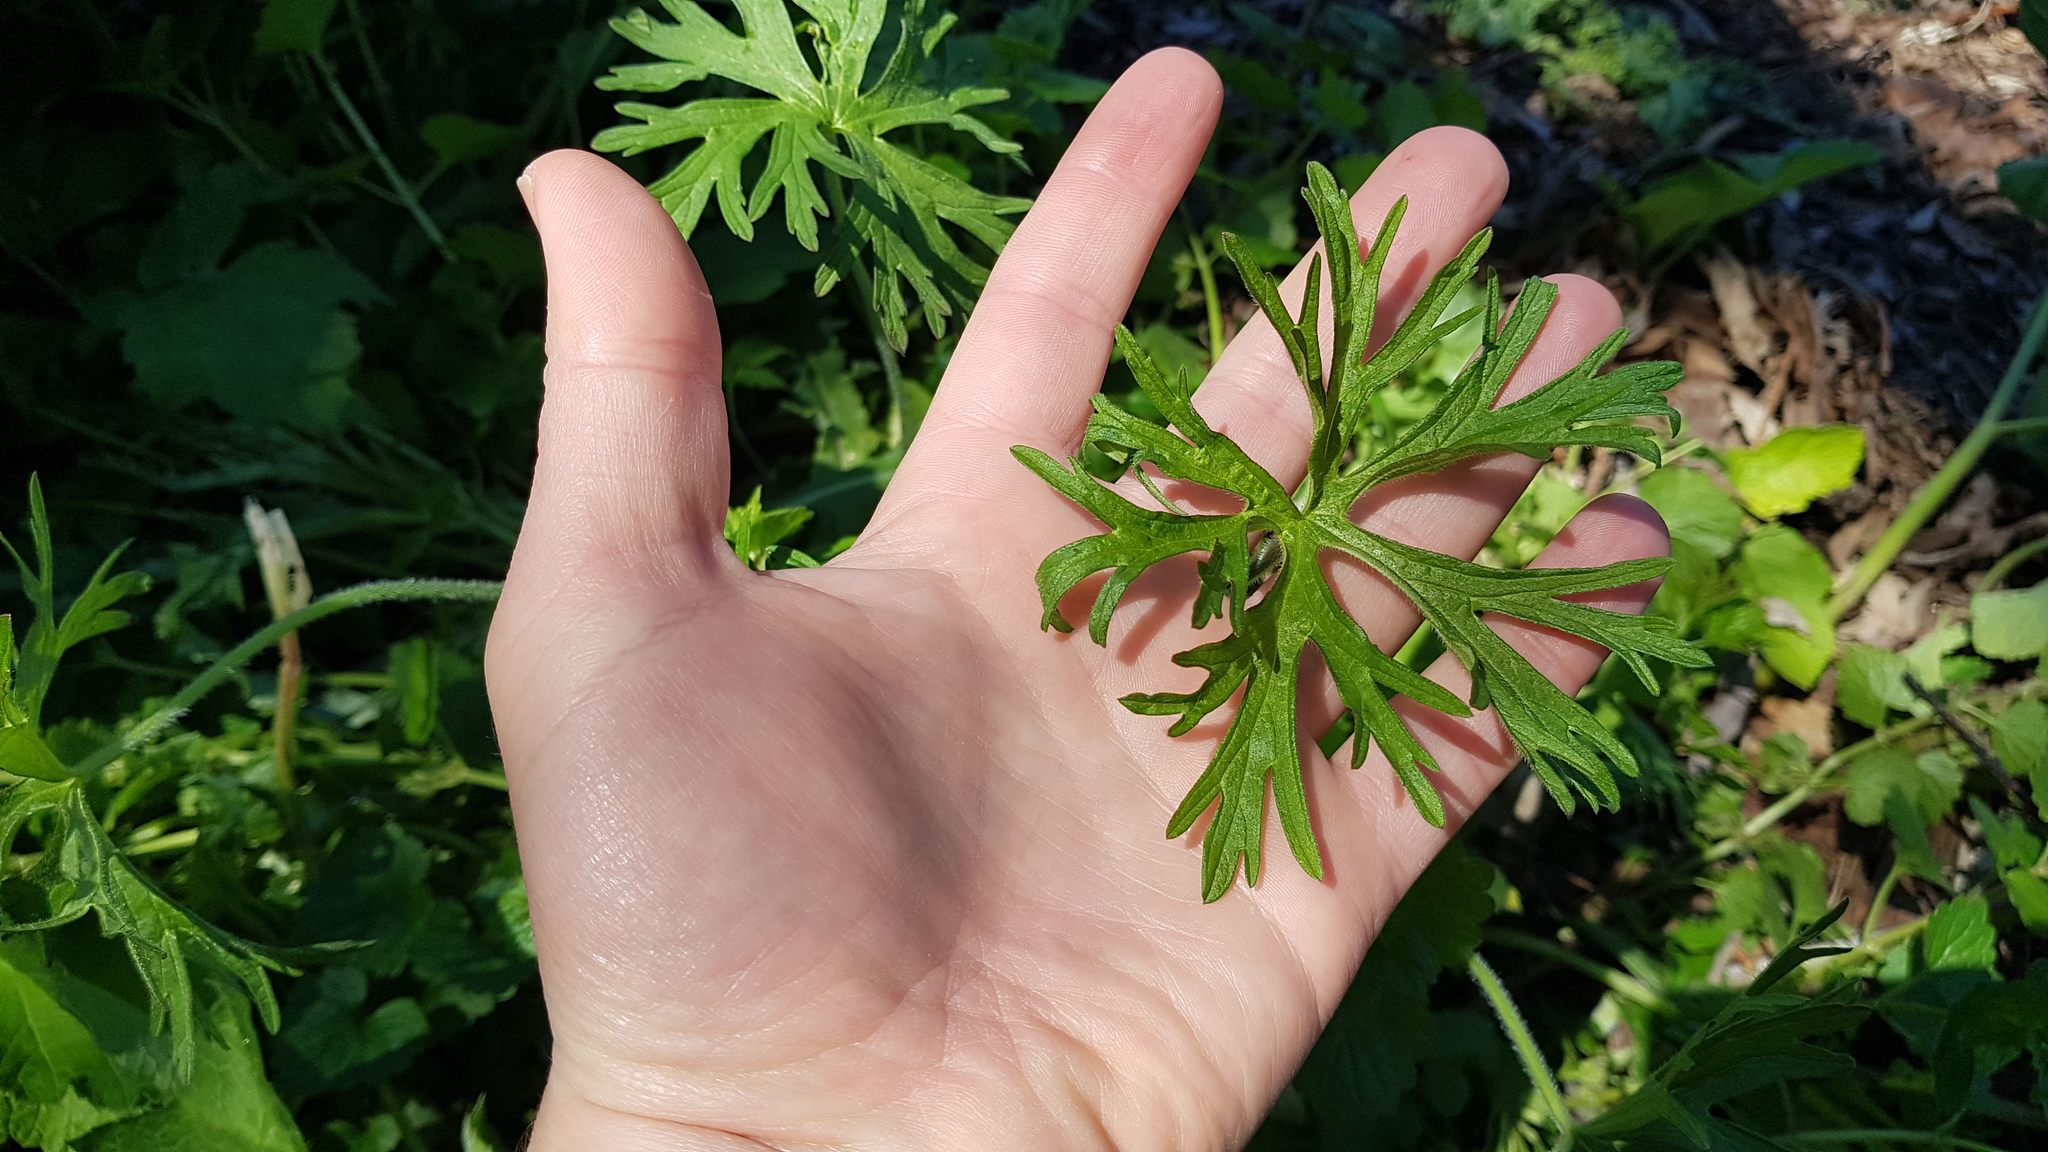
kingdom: Plantae
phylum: Tracheophyta
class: Magnoliopsida
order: Geraniales
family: Geraniaceae
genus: Geranium
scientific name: Geranium dissectum
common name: Cut-leaved crane's-bill
